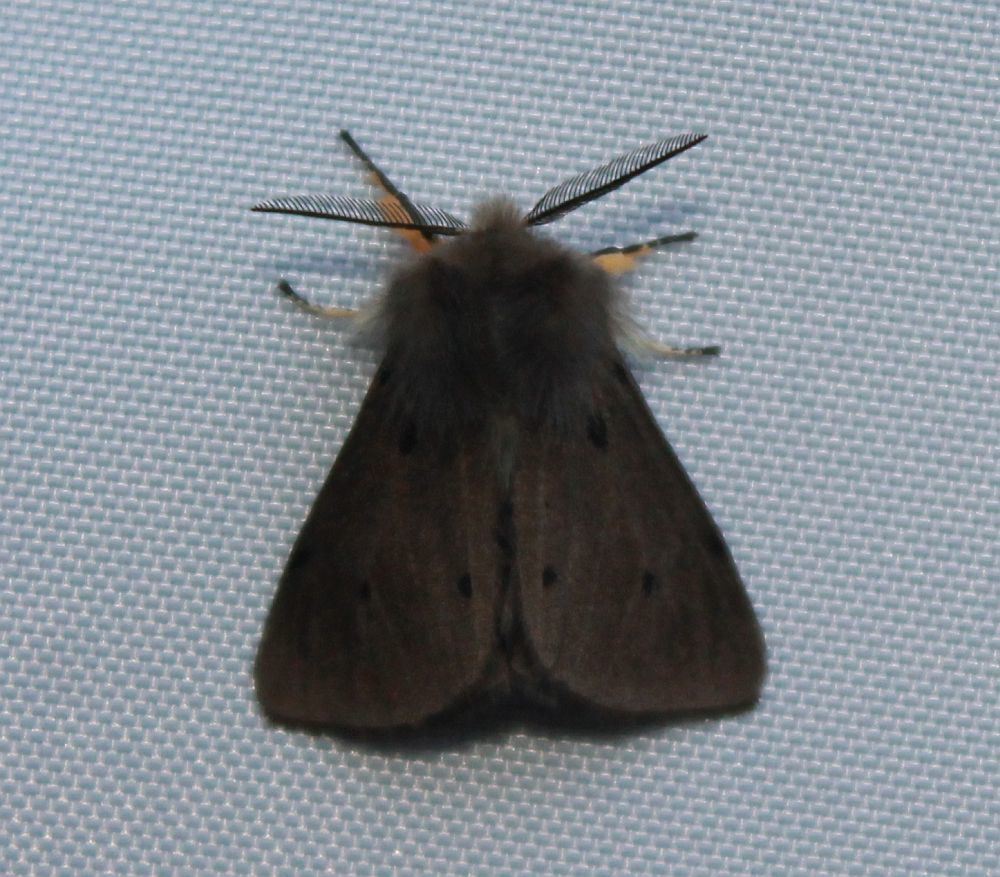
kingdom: Animalia
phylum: Arthropoda
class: Insecta
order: Lepidoptera
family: Erebidae
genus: Diaphora
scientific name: Diaphora mendica
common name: Muslin moth
